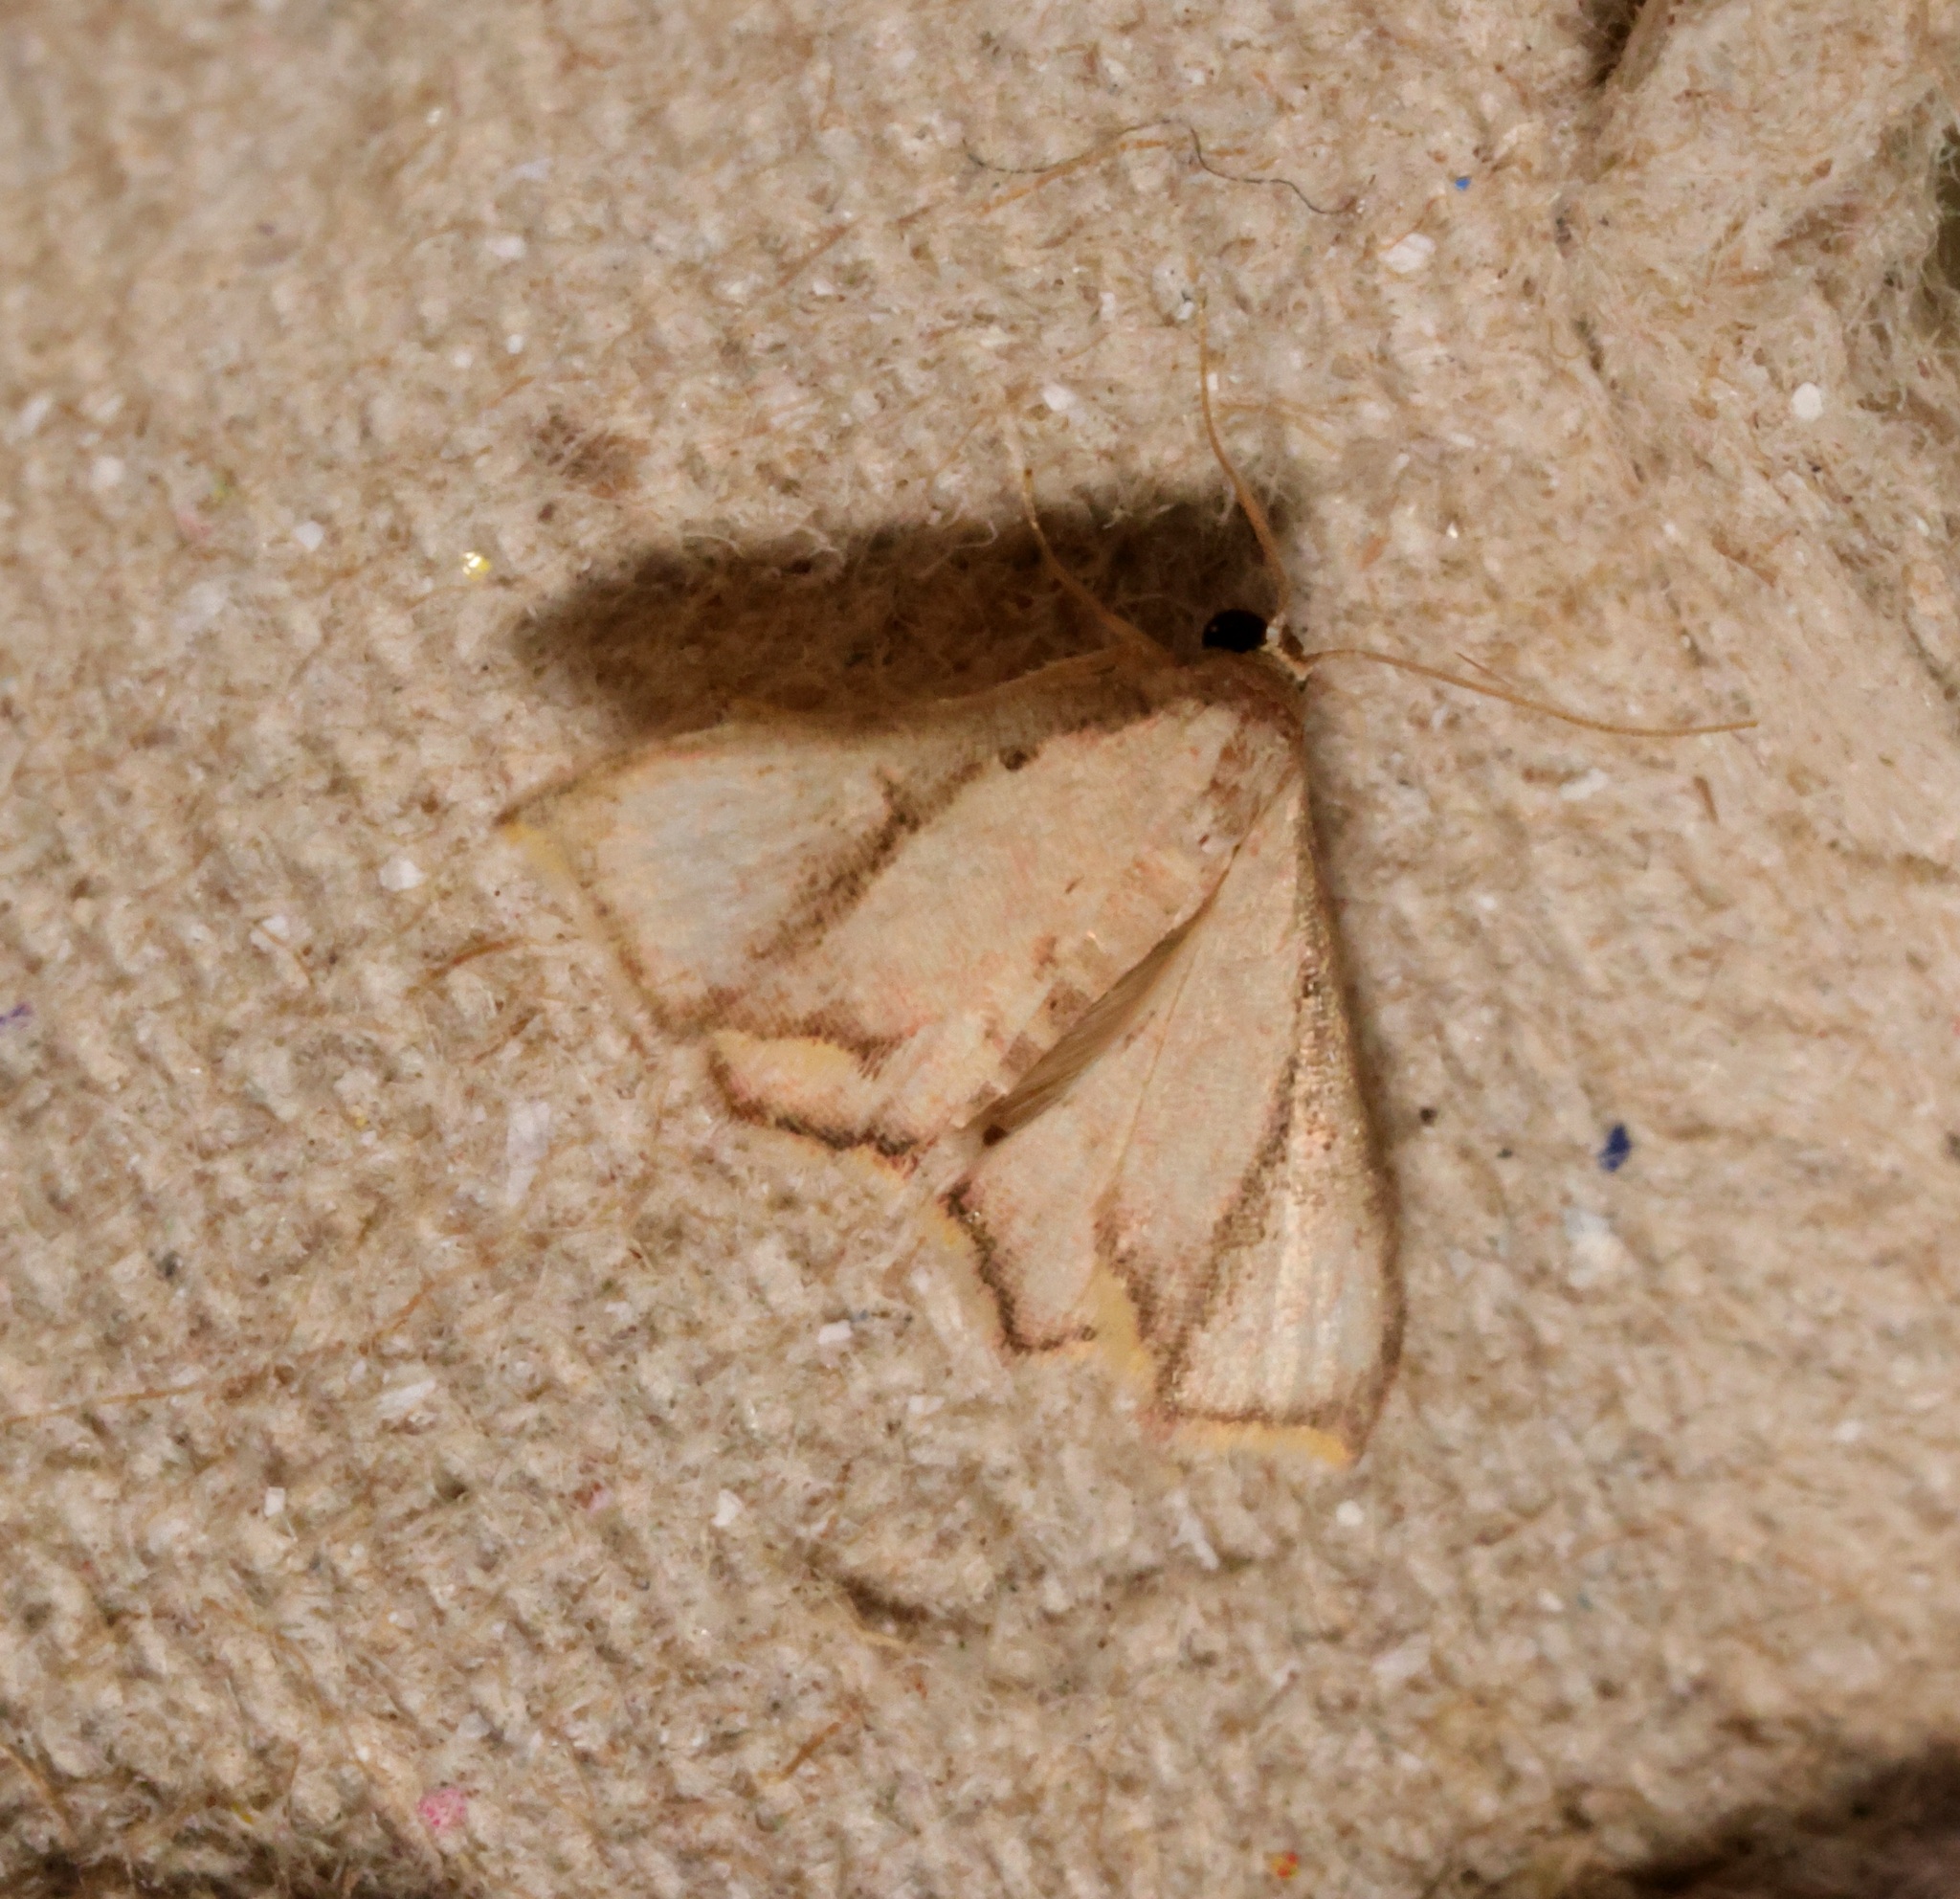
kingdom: Animalia
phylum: Arthropoda
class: Insecta
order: Lepidoptera
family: Noctuidae
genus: Enispa
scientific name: Enispa elataria
